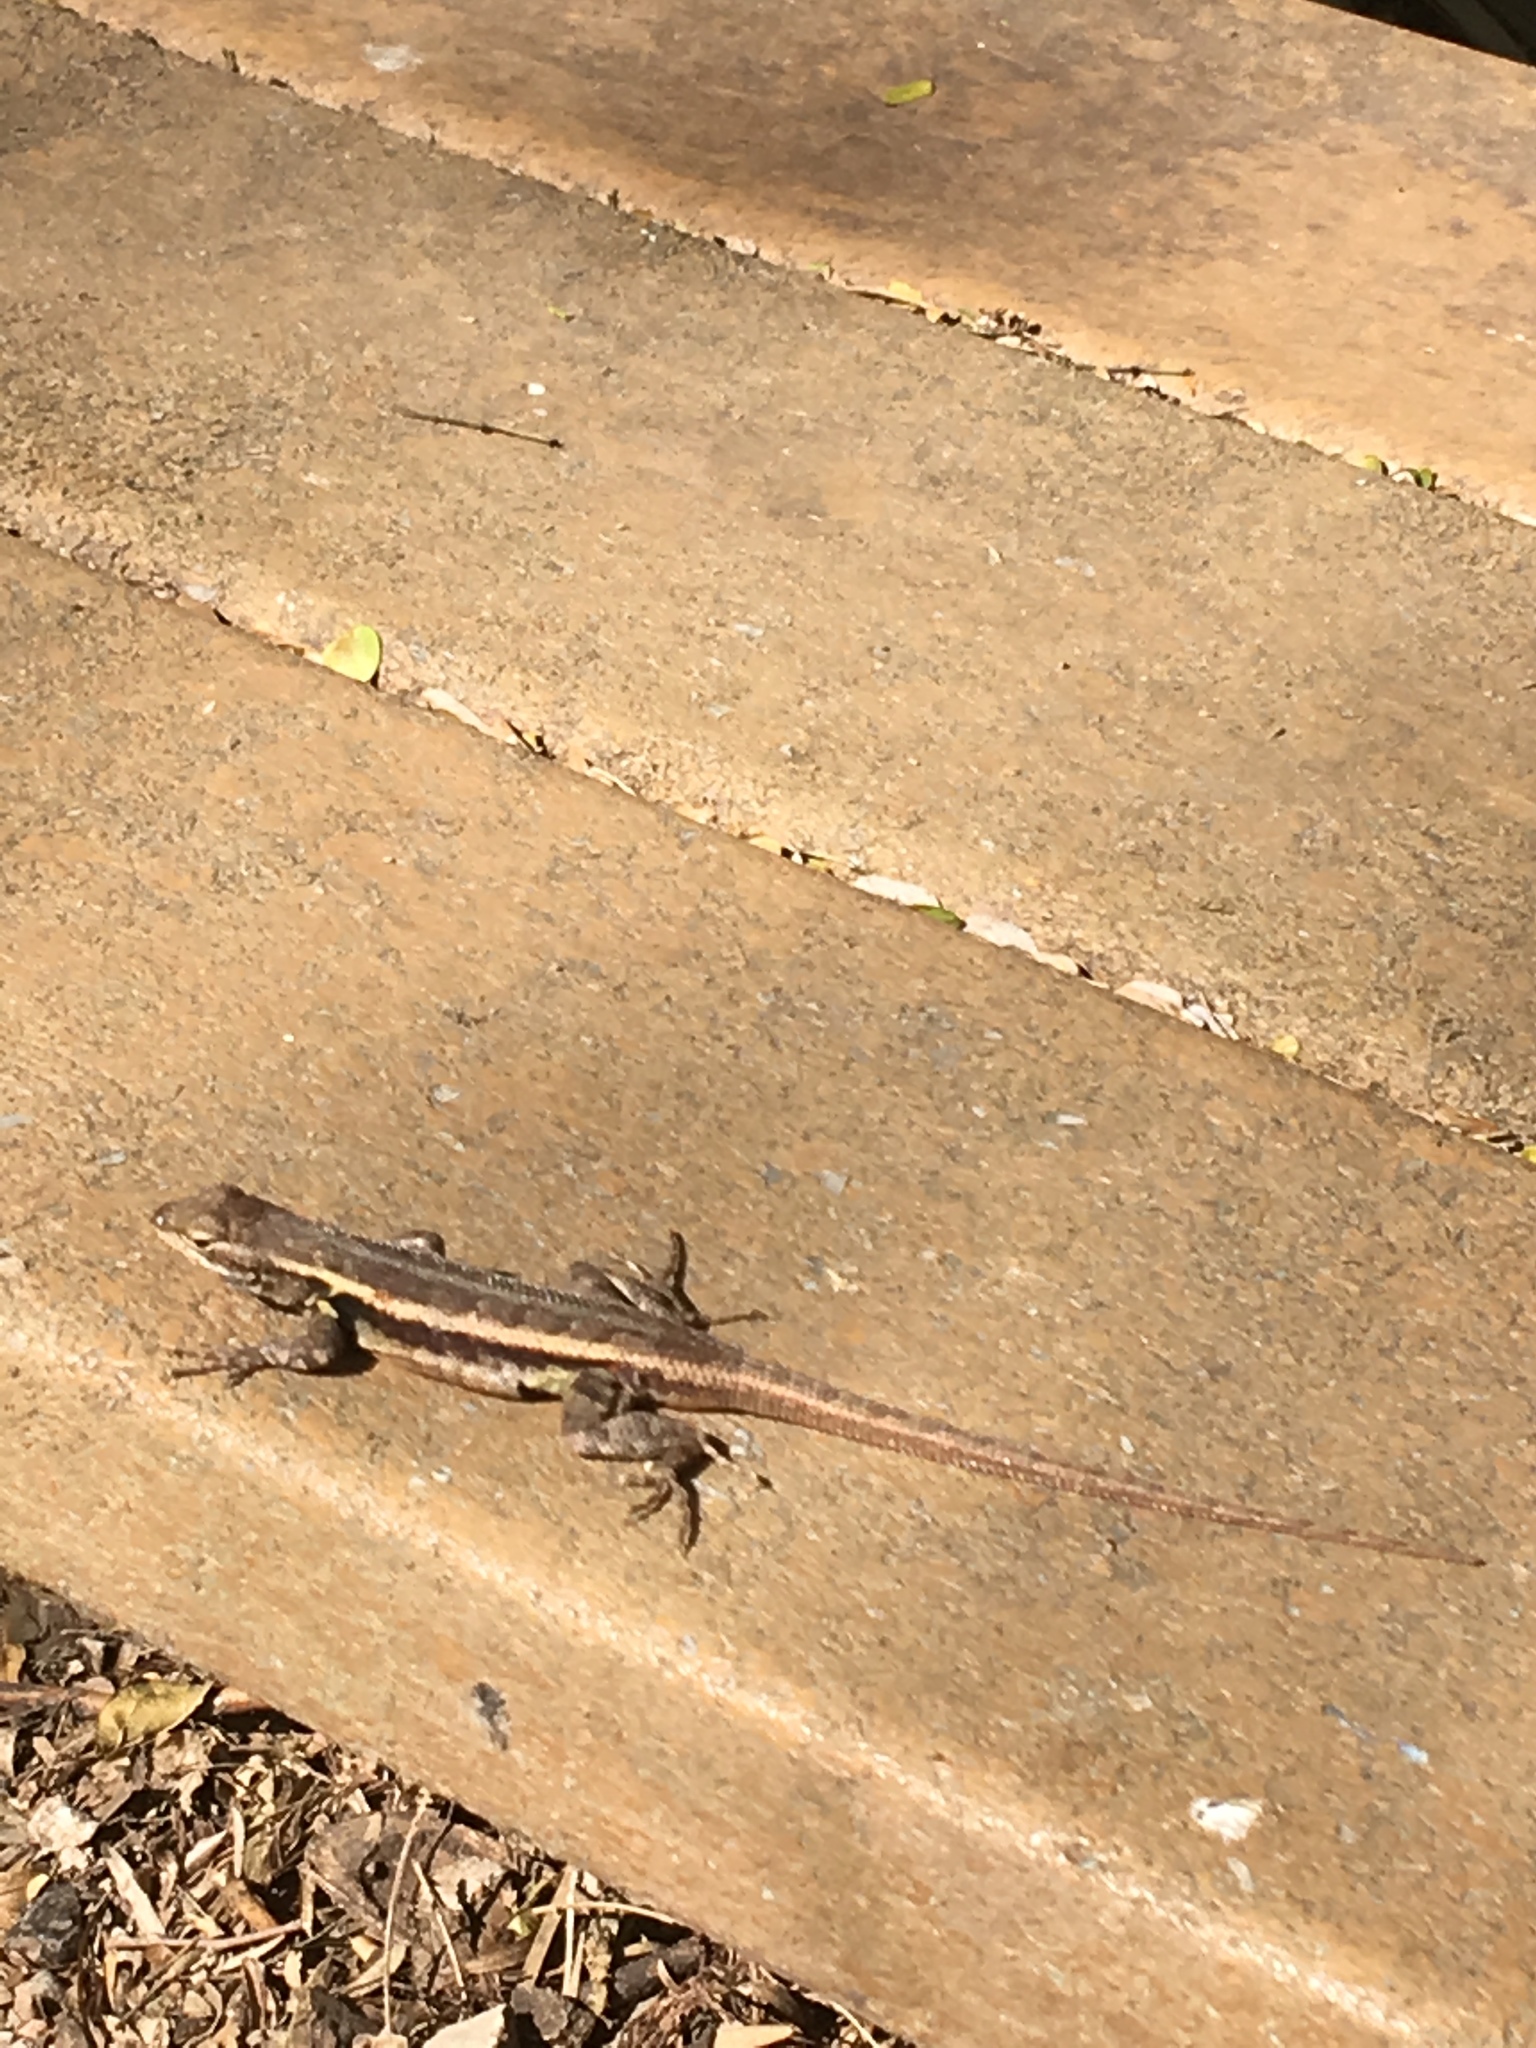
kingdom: Animalia
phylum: Chordata
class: Squamata
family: Phrynosomatidae
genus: Sceloporus
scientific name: Sceloporus variabilis
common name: Rosebelly lizard
